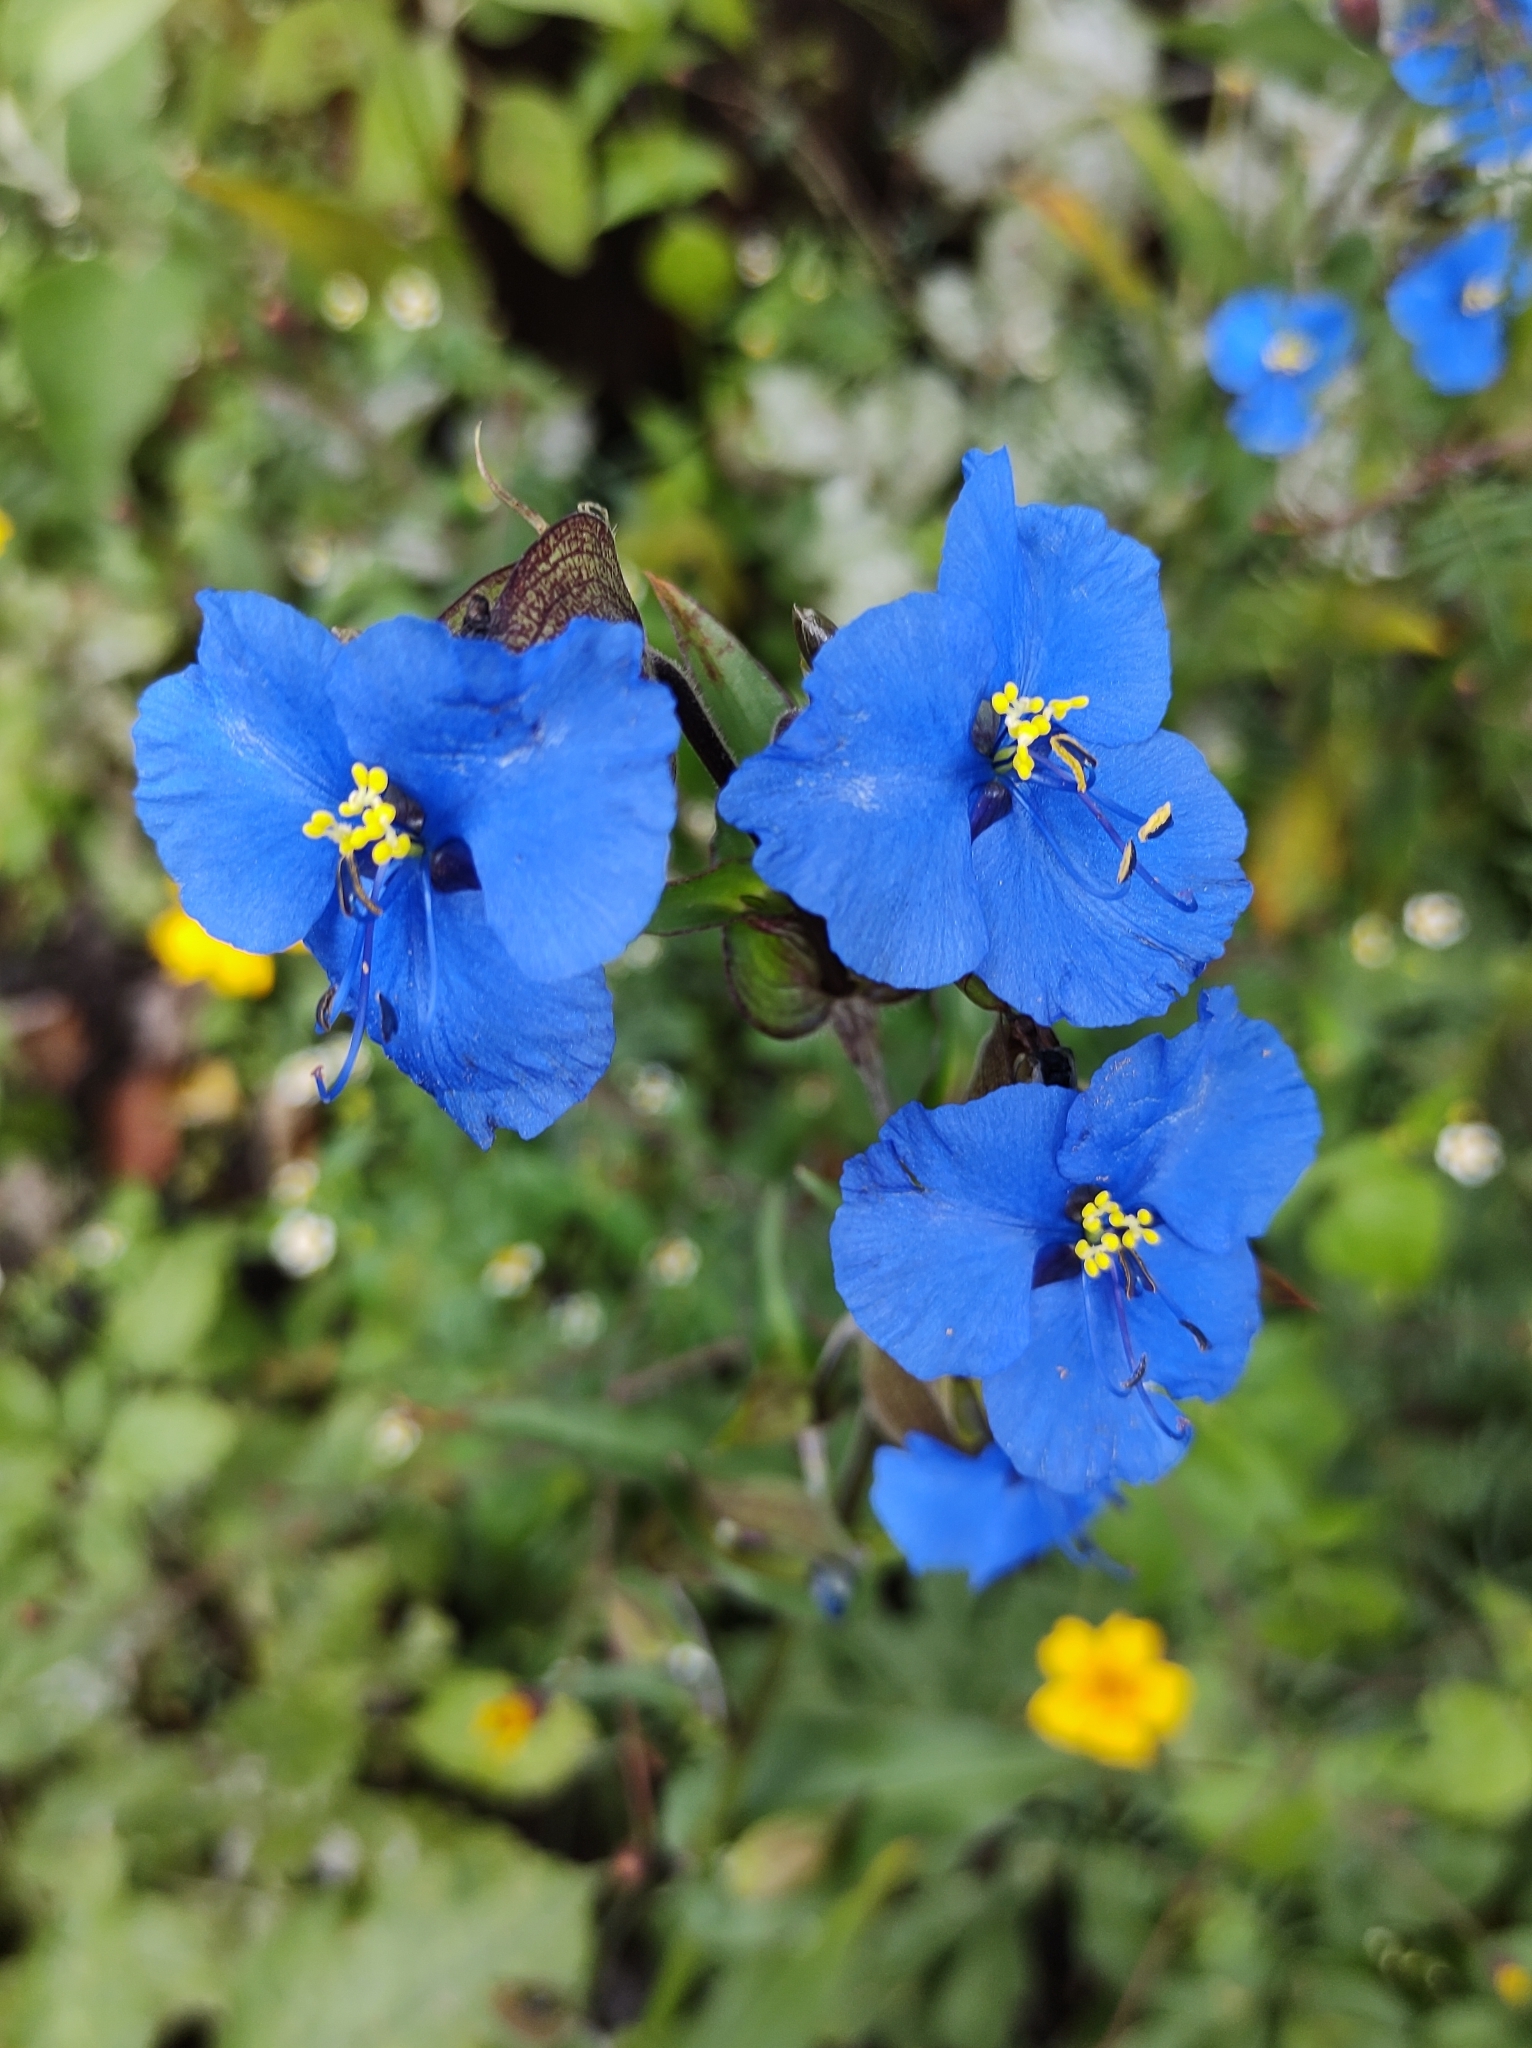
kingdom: Plantae
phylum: Tracheophyta
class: Liliopsida
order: Commelinales
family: Commelinaceae
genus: Commelina
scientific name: Commelina tuberosa
